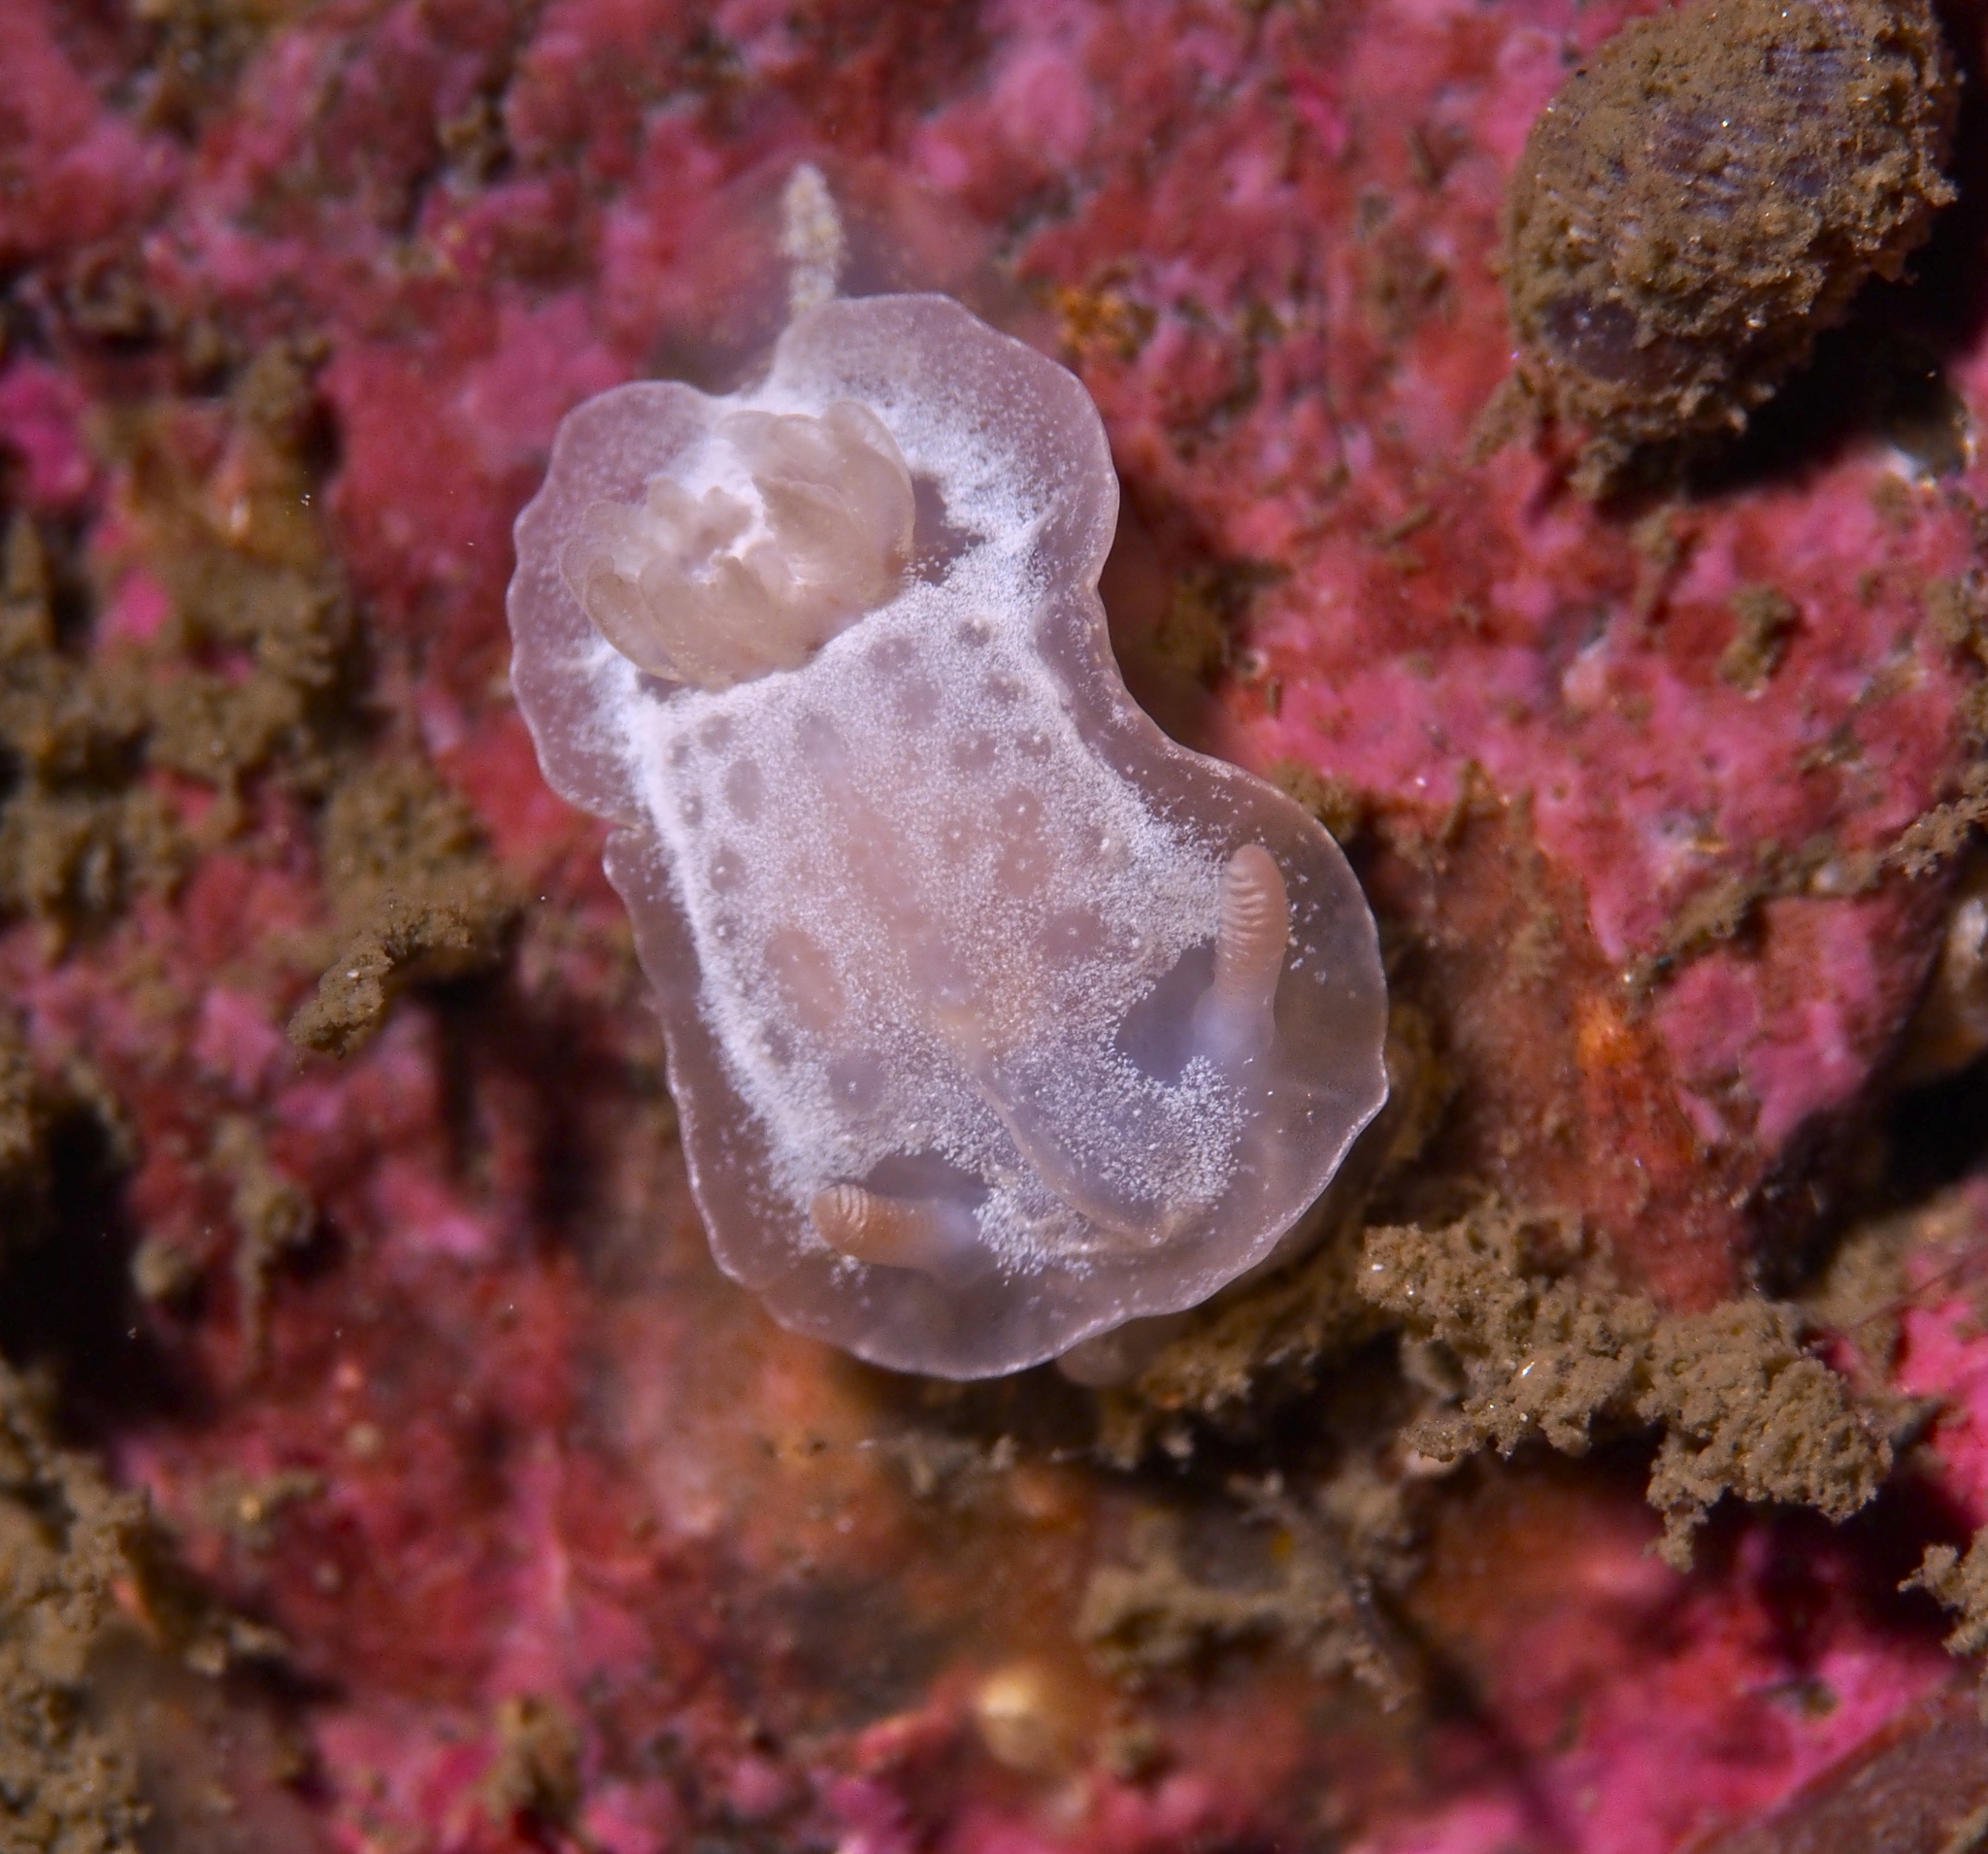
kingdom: Animalia
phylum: Mollusca
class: Gastropoda
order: Nudibranchia
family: Goniodorididae
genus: Okenia
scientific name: Okenia
